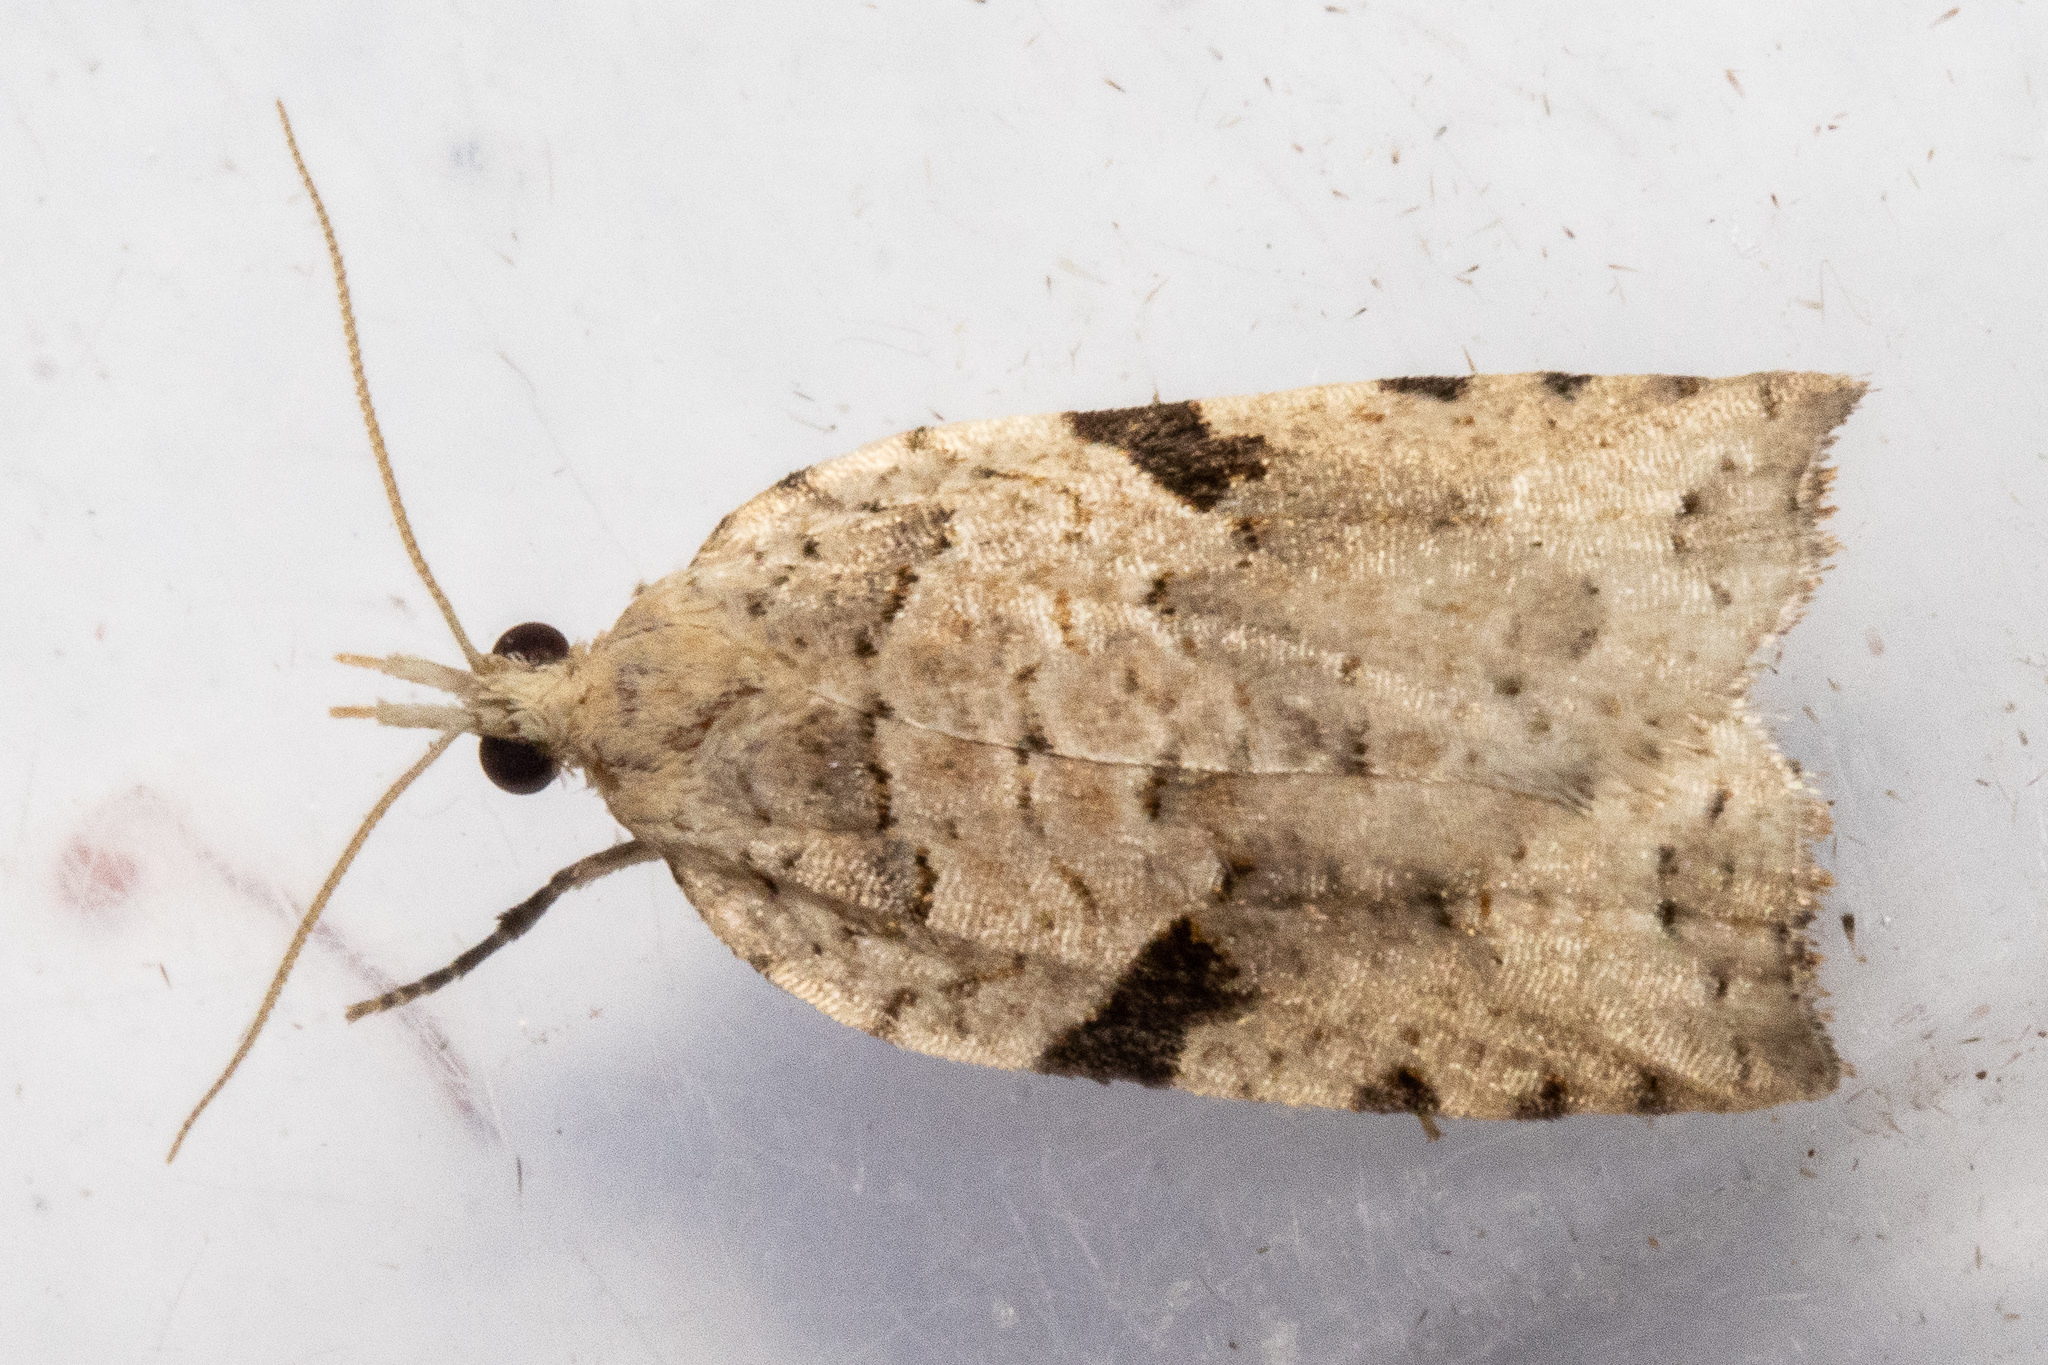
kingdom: Animalia
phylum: Arthropoda
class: Insecta
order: Lepidoptera
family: Tortricidae
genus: Leucotenes
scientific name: Leucotenes coprosmae
